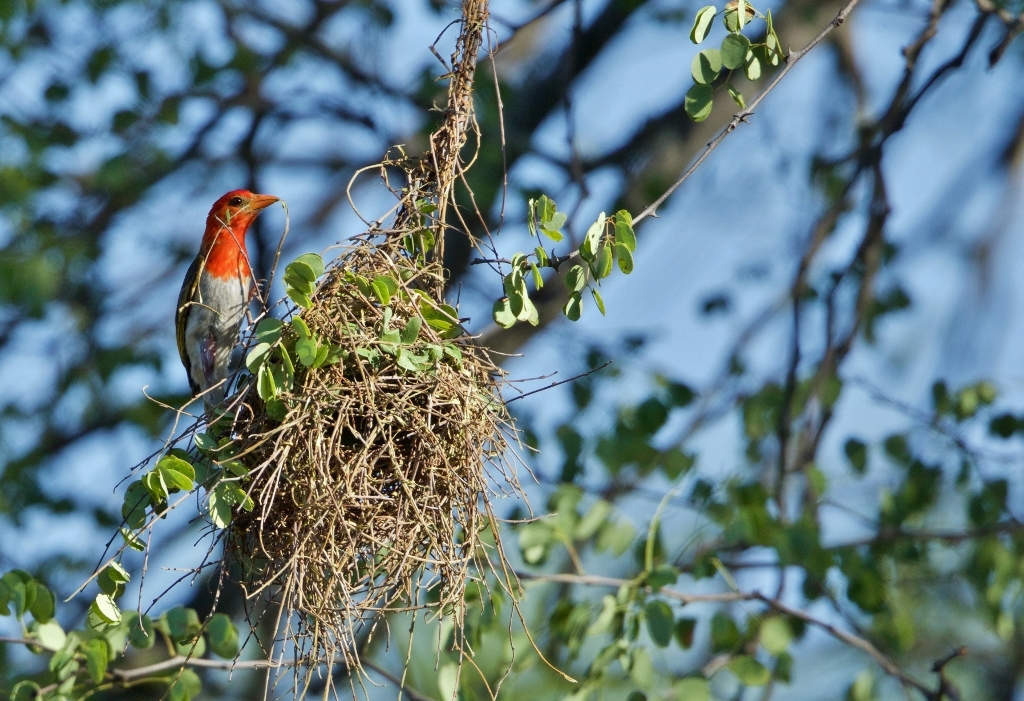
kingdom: Animalia
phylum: Chordata
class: Aves
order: Passeriformes
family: Ploceidae
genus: Anaplectes
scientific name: Anaplectes rubriceps
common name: Red-headed weaver
